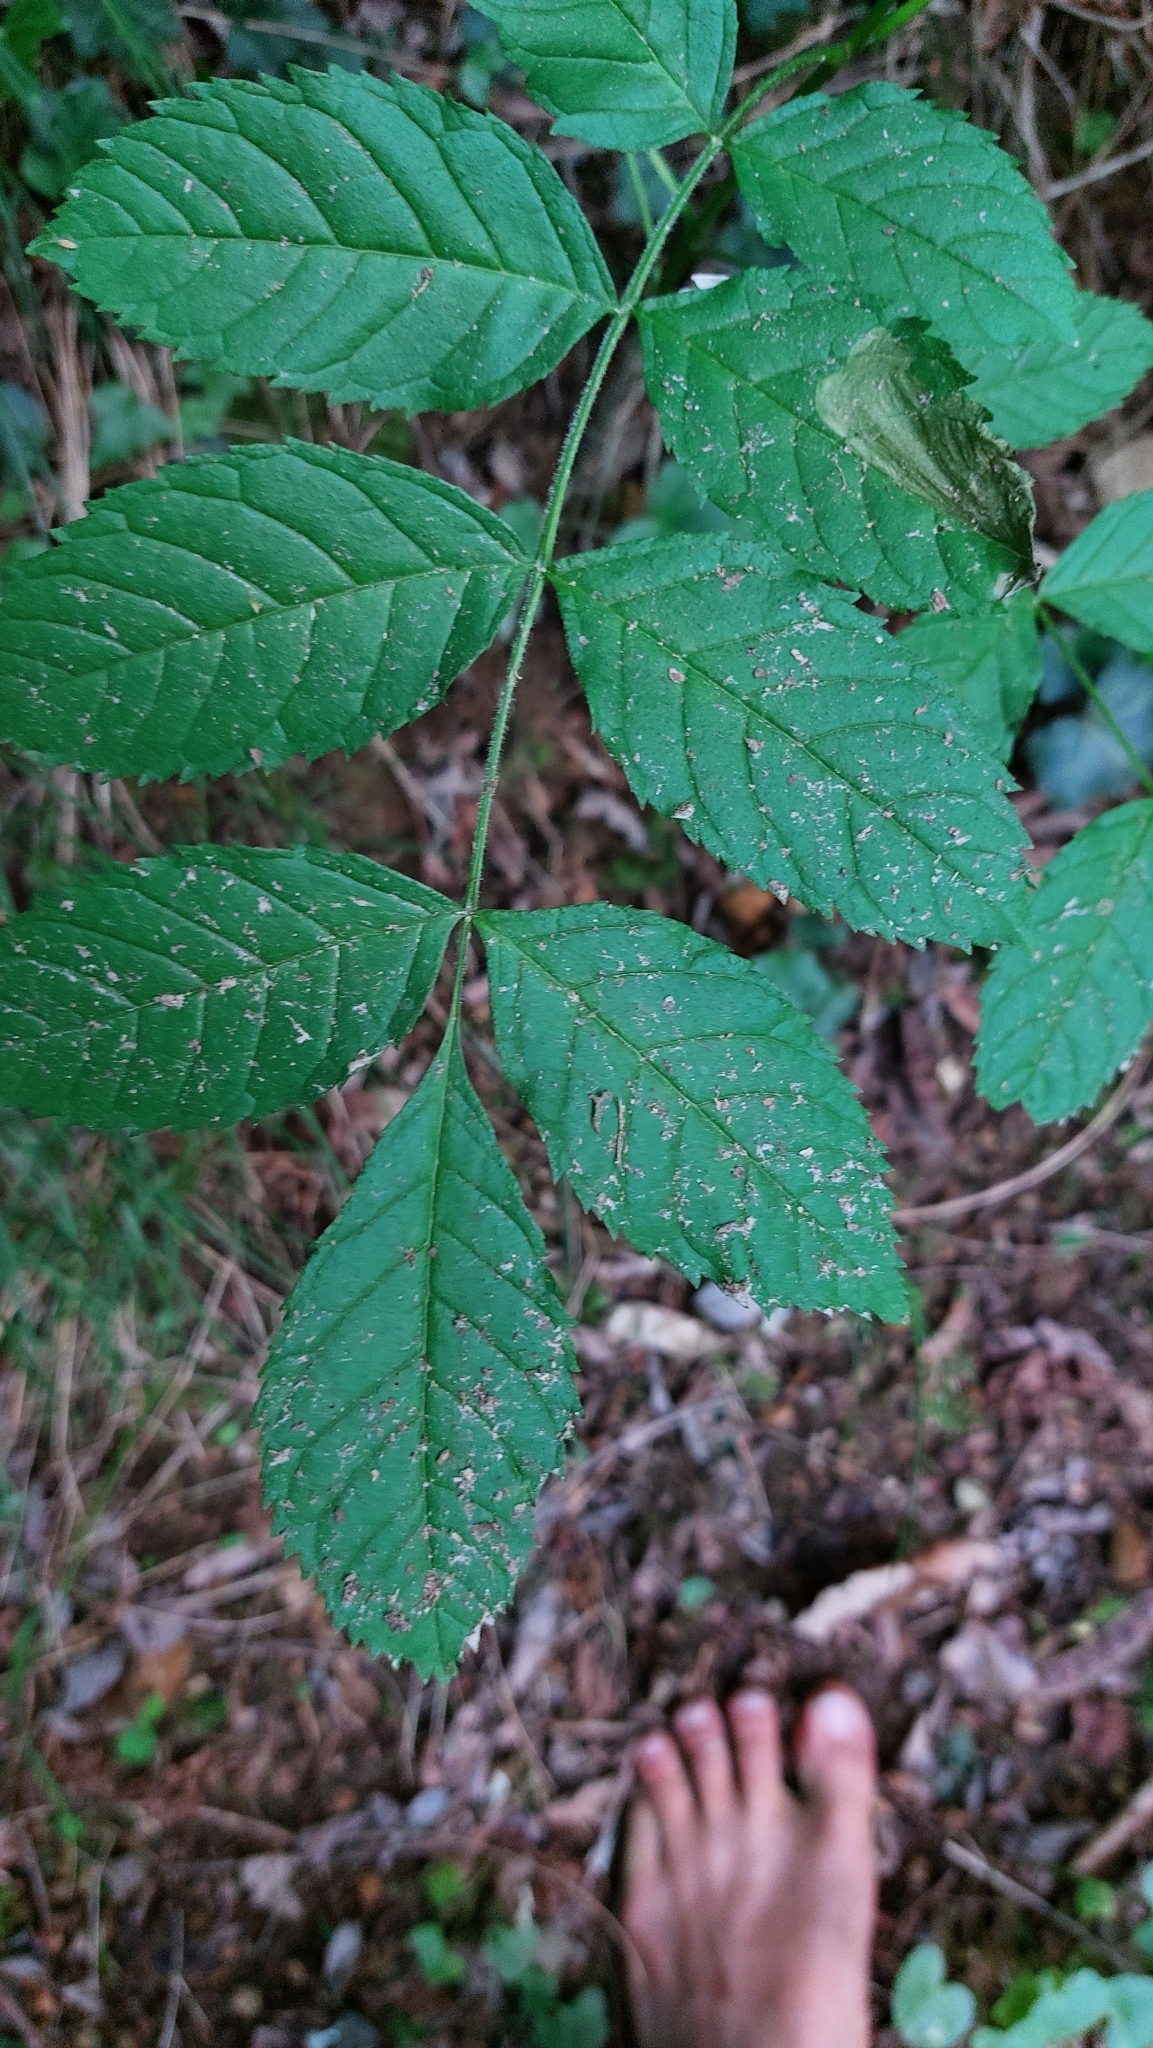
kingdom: Plantae
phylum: Tracheophyta
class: Magnoliopsida
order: Lamiales
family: Oleaceae
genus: Fraxinus
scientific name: Fraxinus excelsior
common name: European ash
